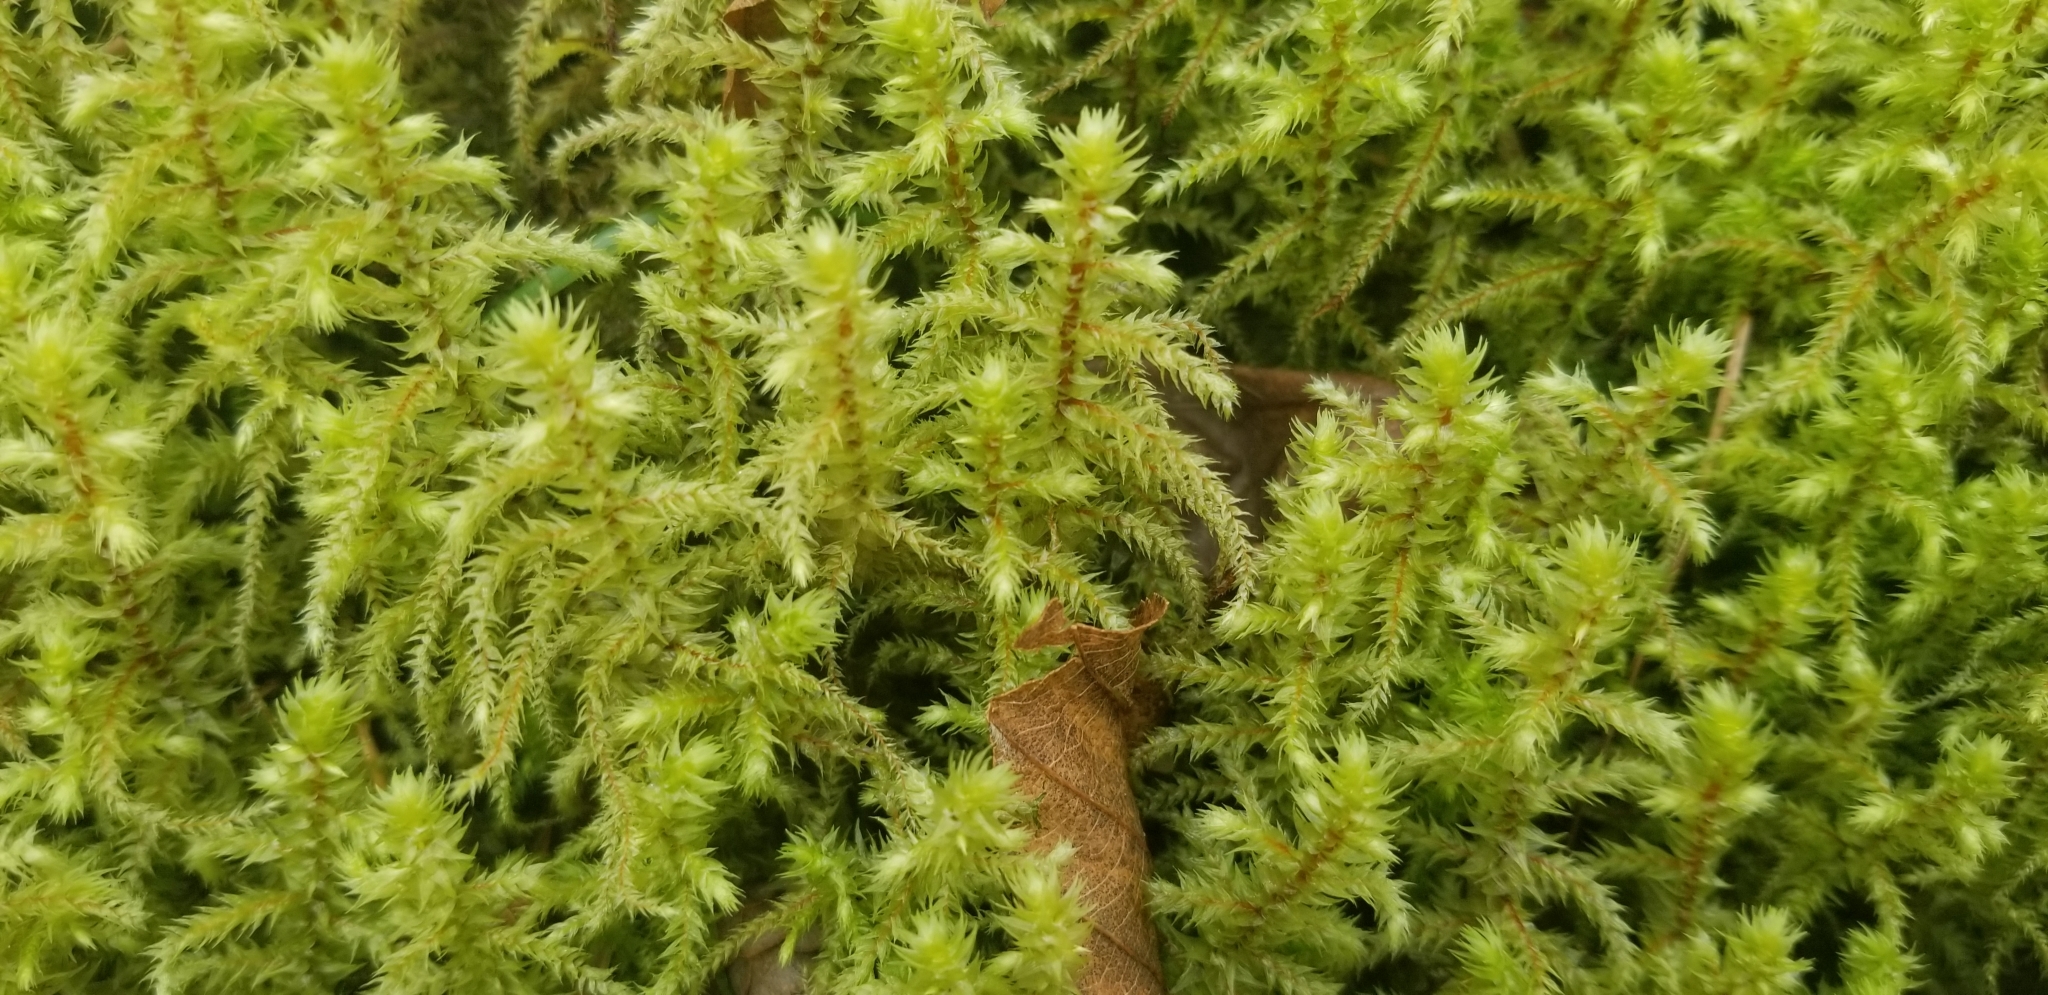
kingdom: Plantae
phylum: Bryophyta
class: Bryopsida
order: Hypnales
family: Hylocomiaceae
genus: Hylocomiadelphus
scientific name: Hylocomiadelphus triquetrus
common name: Rough goose neck moss
